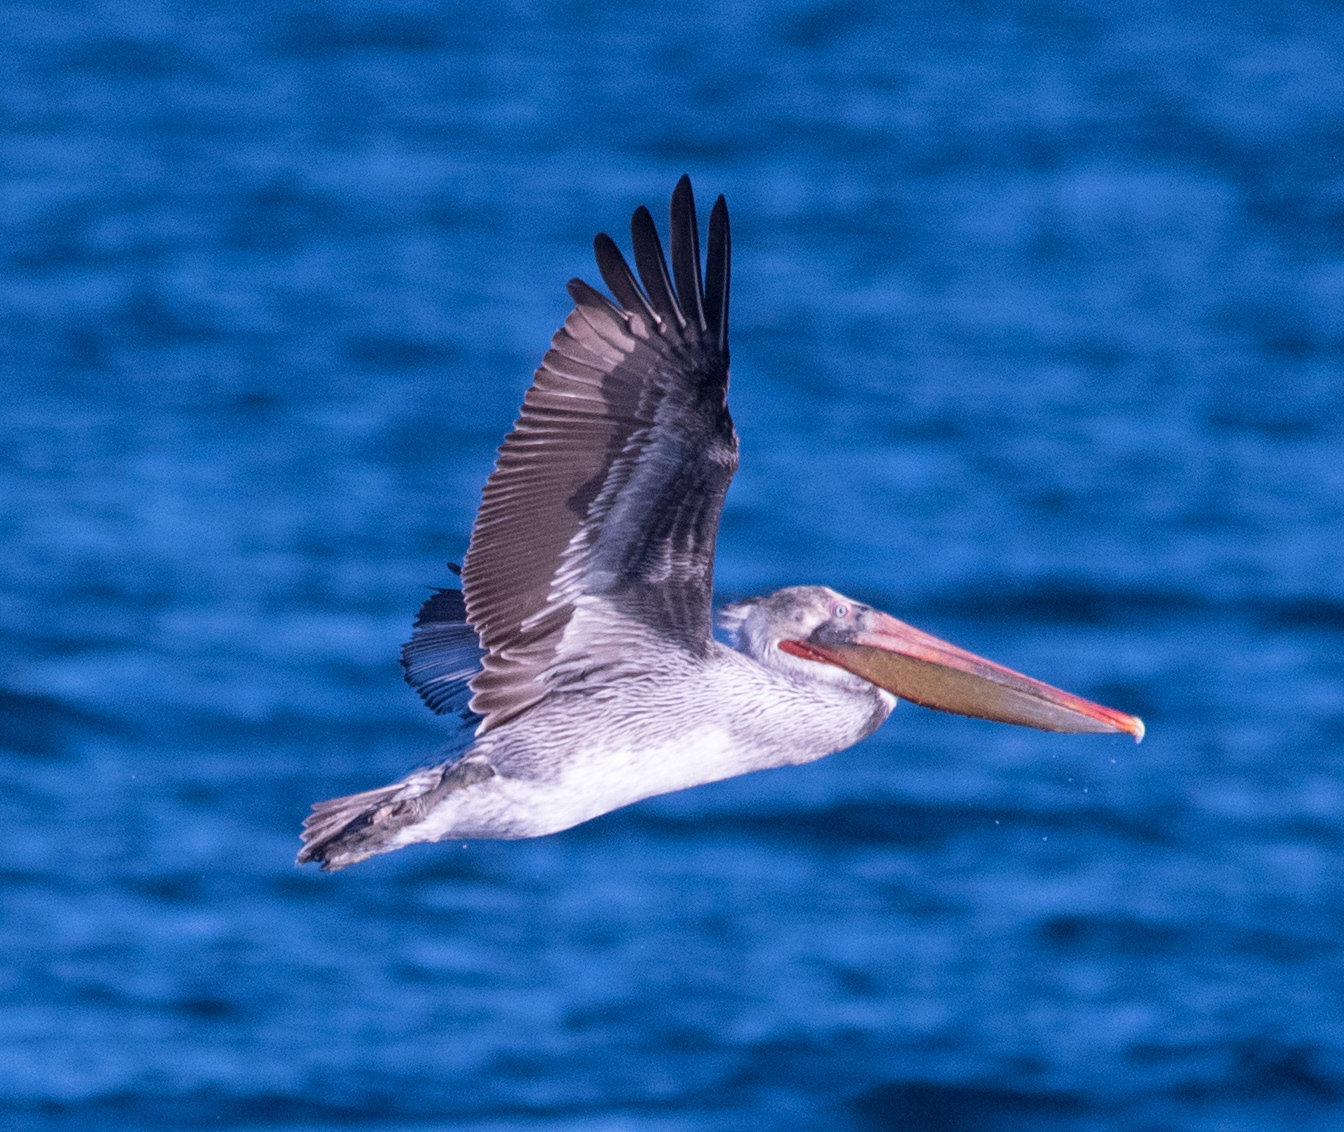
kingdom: Animalia
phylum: Chordata
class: Aves
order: Pelecaniformes
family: Pelecanidae
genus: Pelecanus
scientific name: Pelecanus occidentalis
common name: Brown pelican
